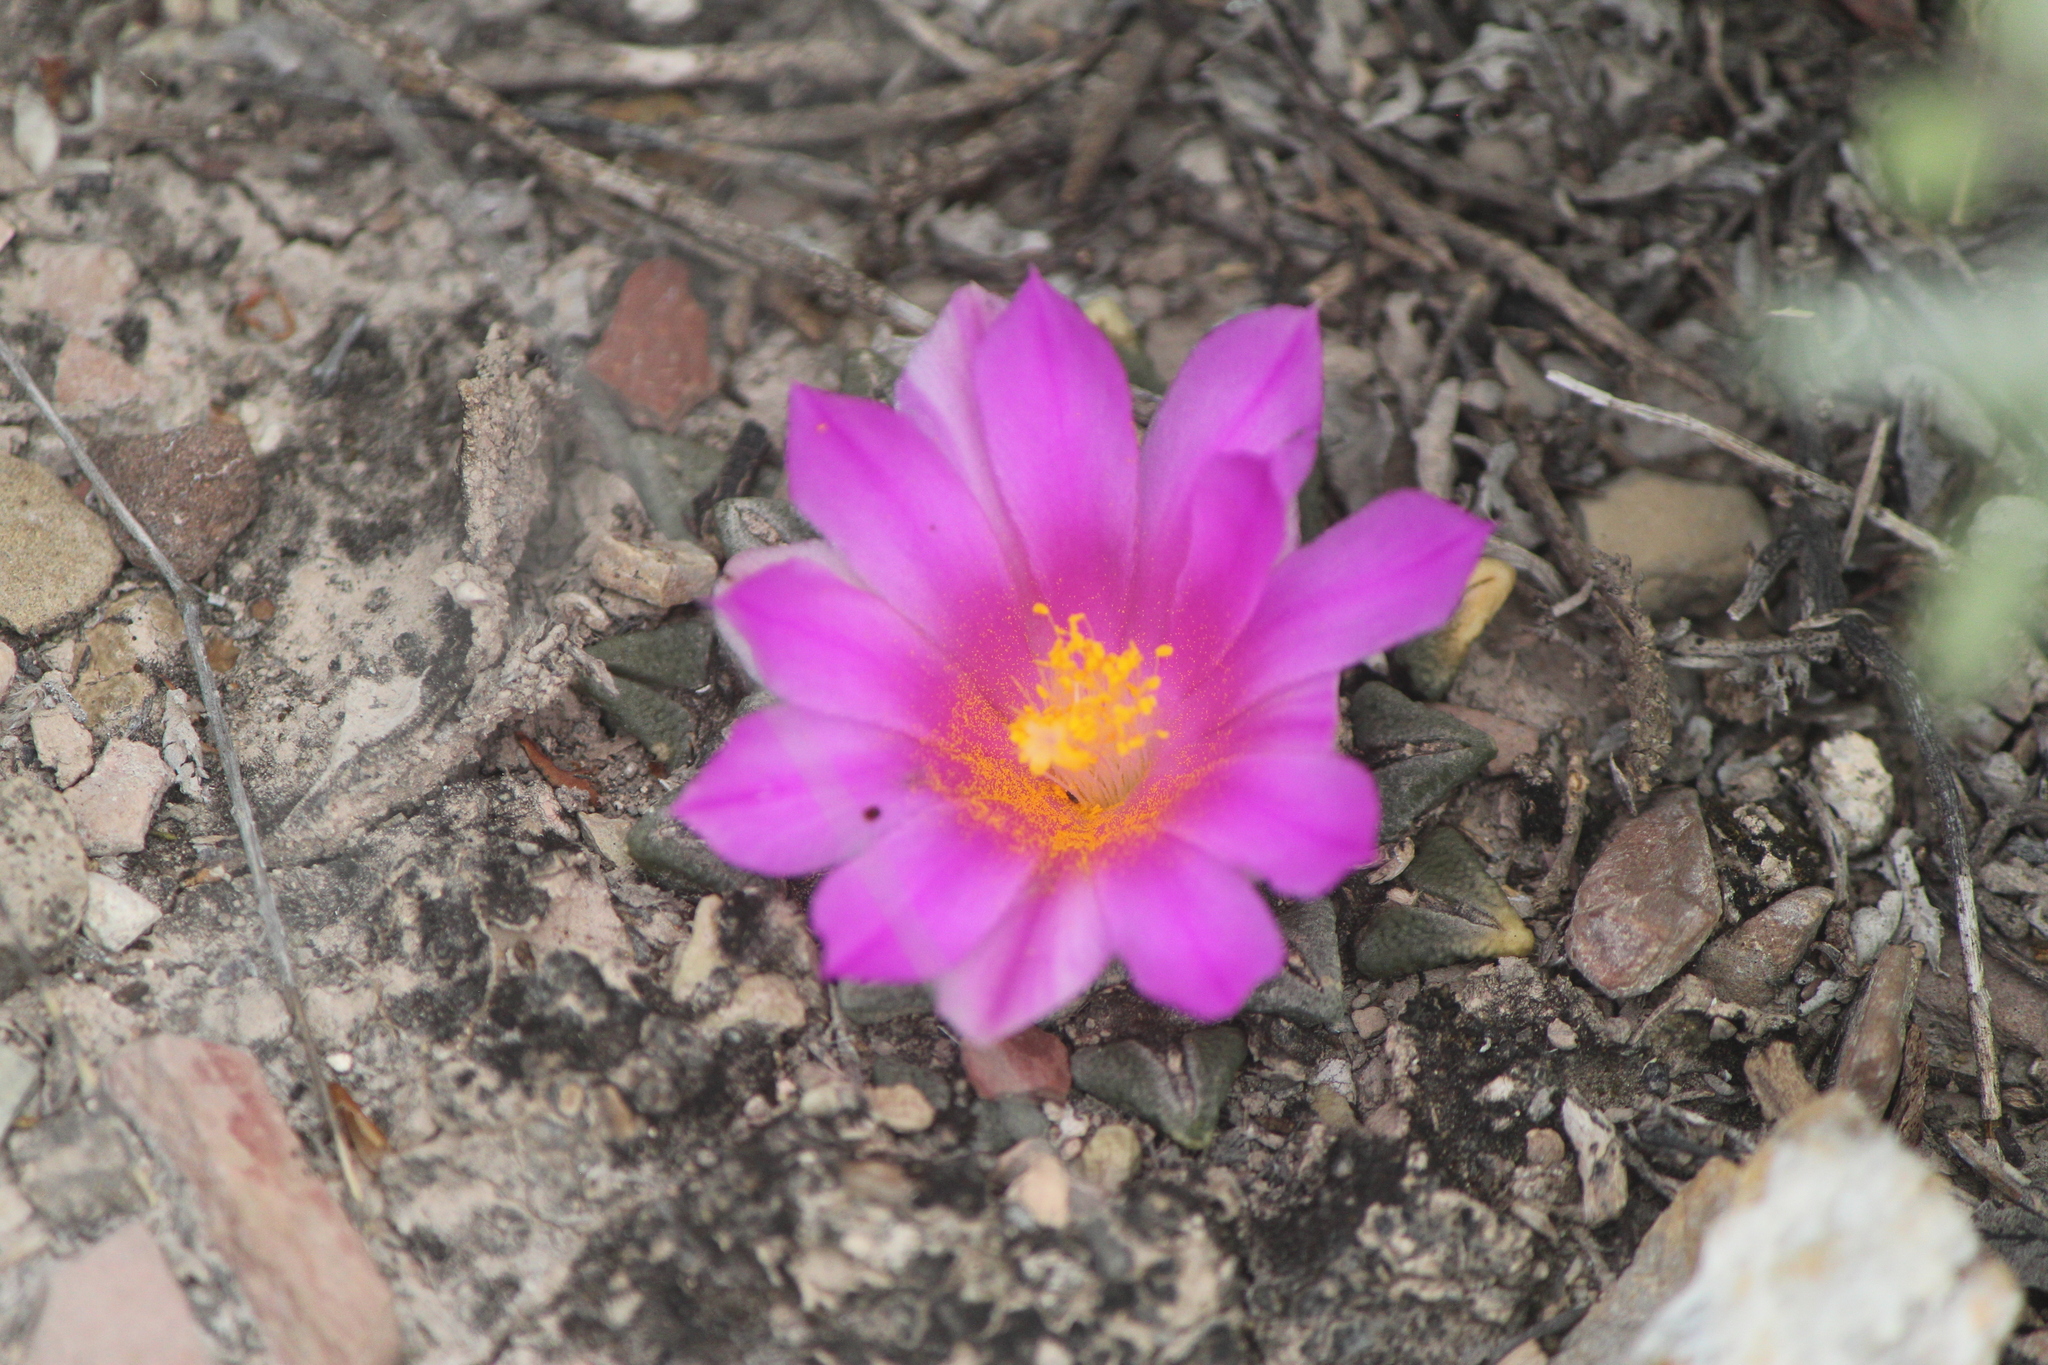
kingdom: Plantae
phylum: Tracheophyta
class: Magnoliopsida
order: Caryophyllales
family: Cactaceae
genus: Ariocarpus
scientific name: Ariocarpus kotschoubeyanus
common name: Living-rock
